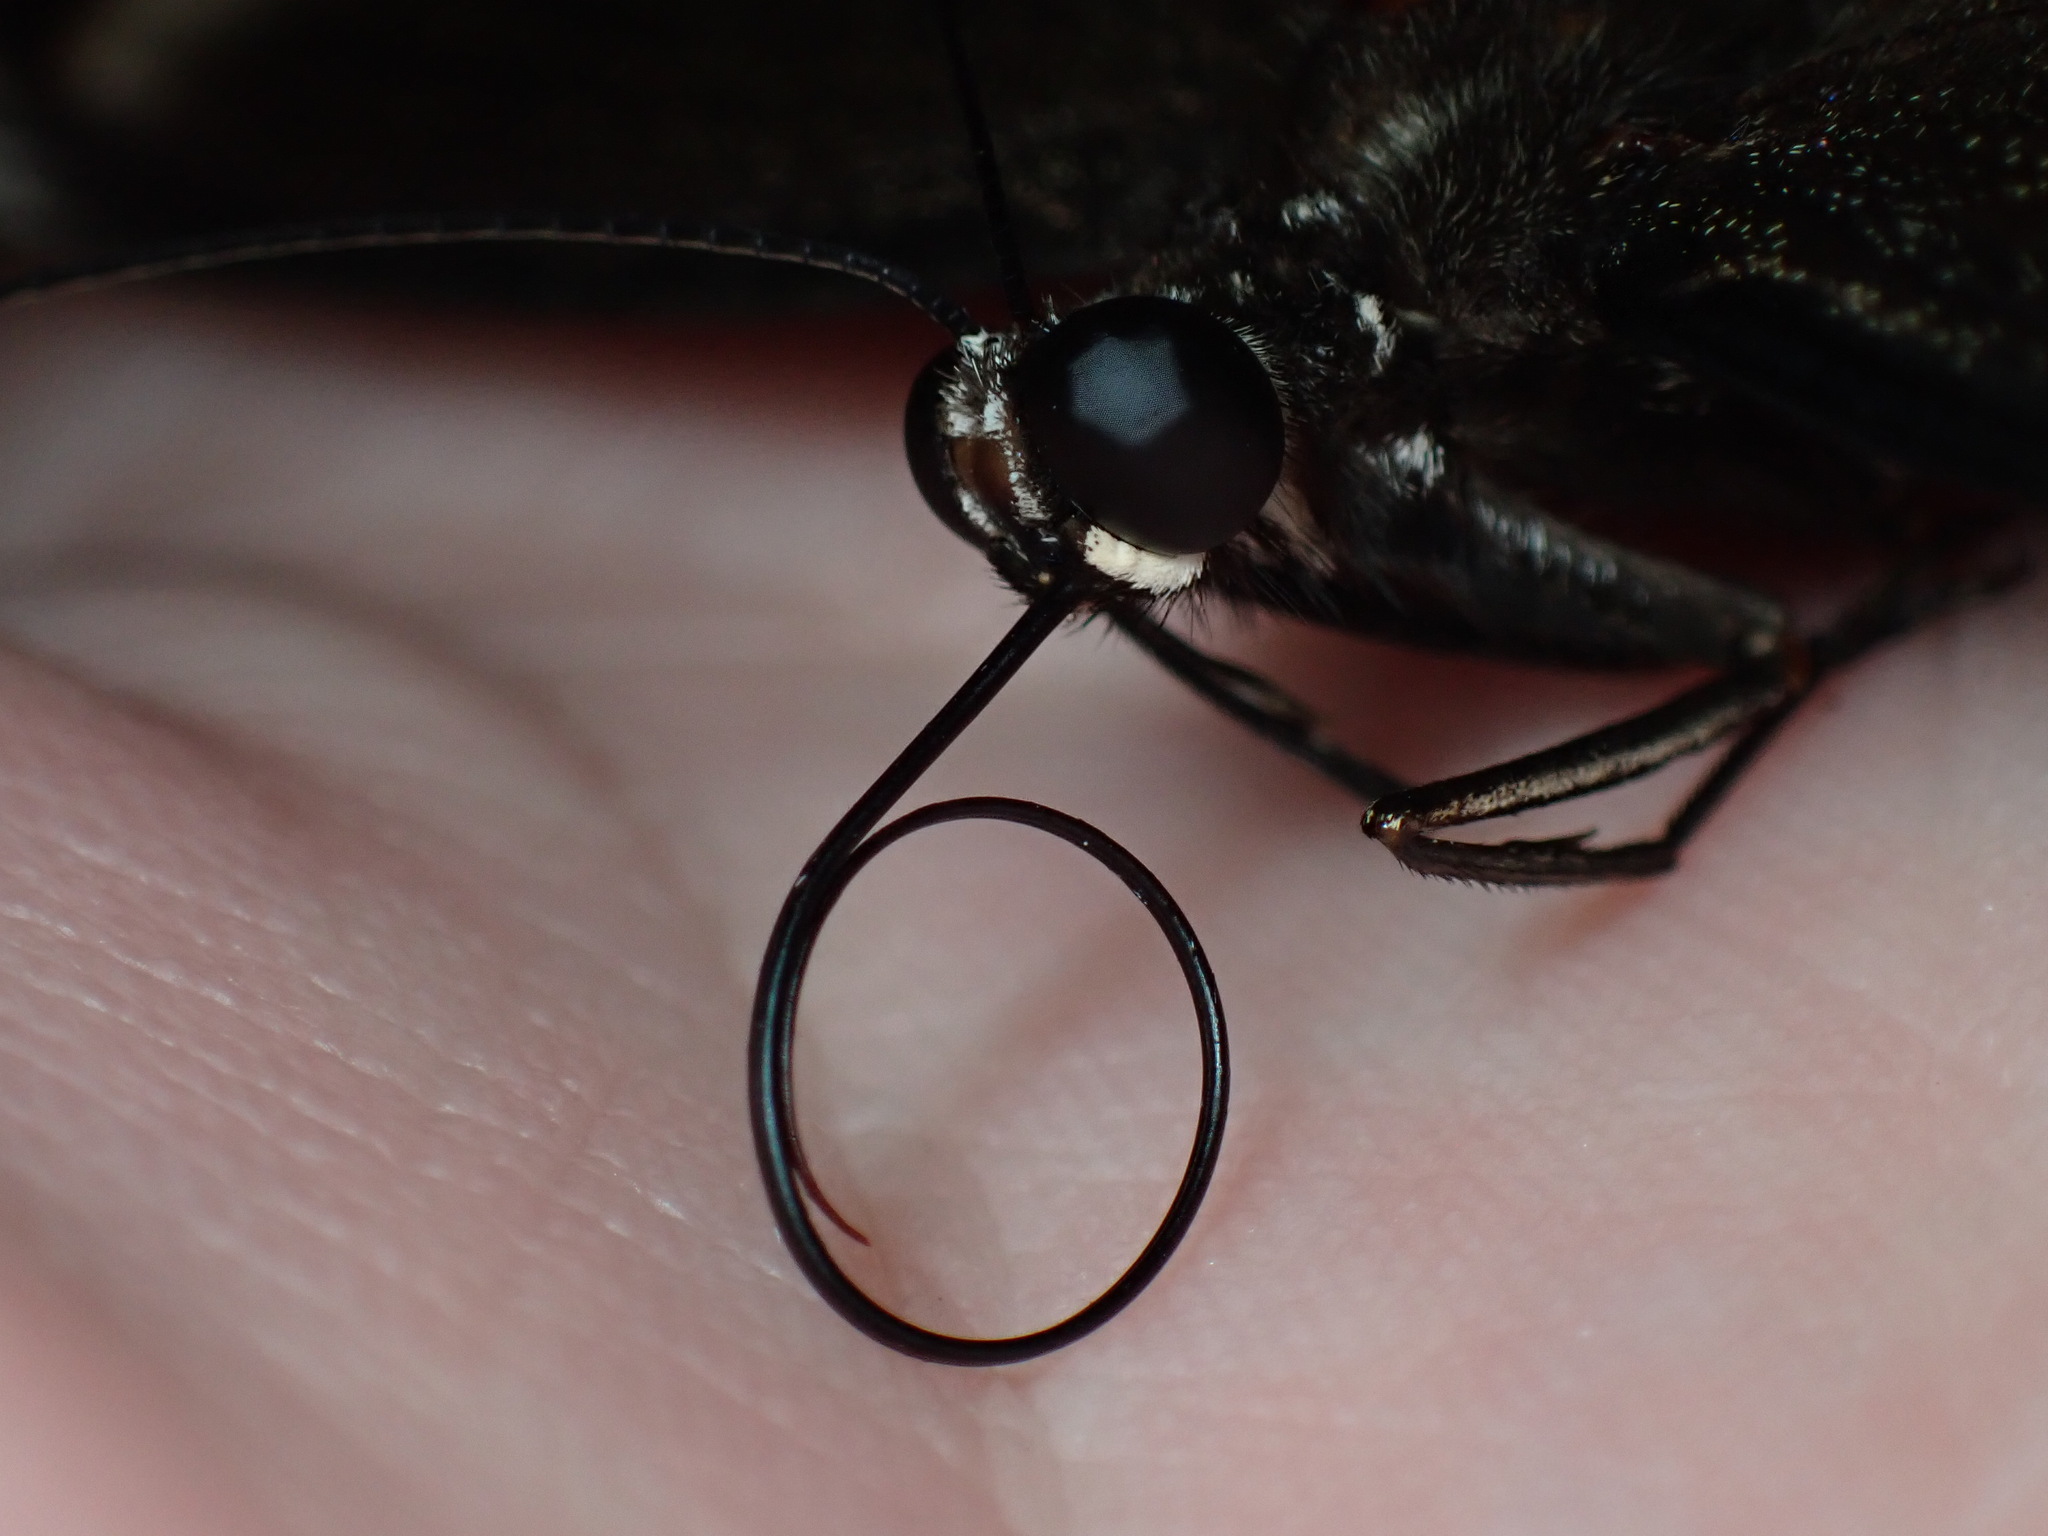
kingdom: Animalia
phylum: Arthropoda
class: Insecta
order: Lepidoptera
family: Papilionidae
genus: Papilio
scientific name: Papilio aegeus
